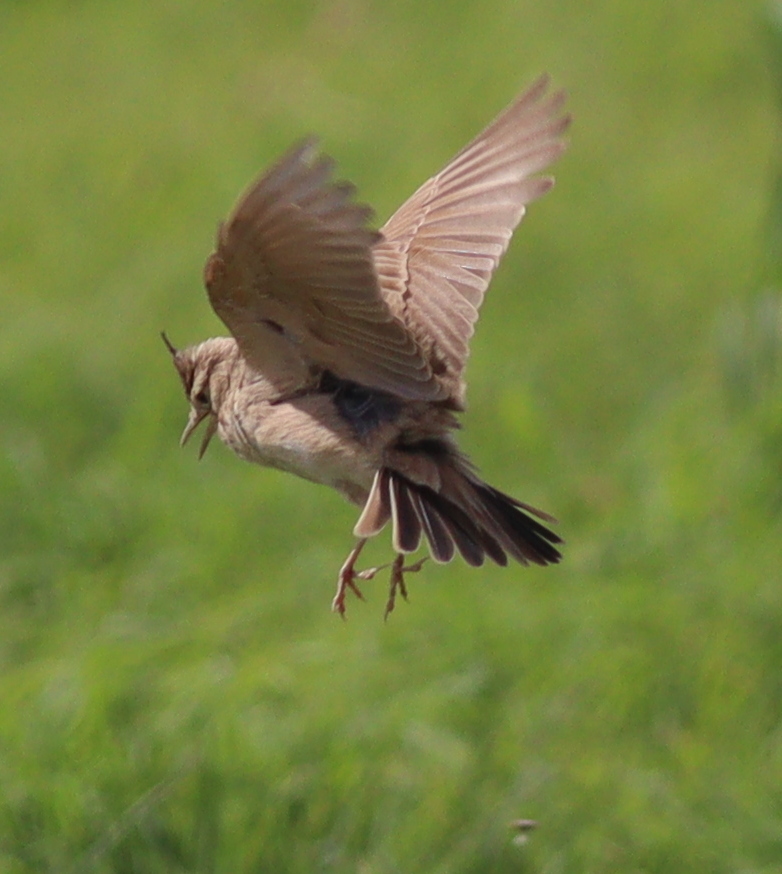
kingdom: Animalia
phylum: Chordata
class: Aves
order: Passeriformes
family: Alaudidae
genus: Galerida
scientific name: Galerida cristata
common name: Crested lark
